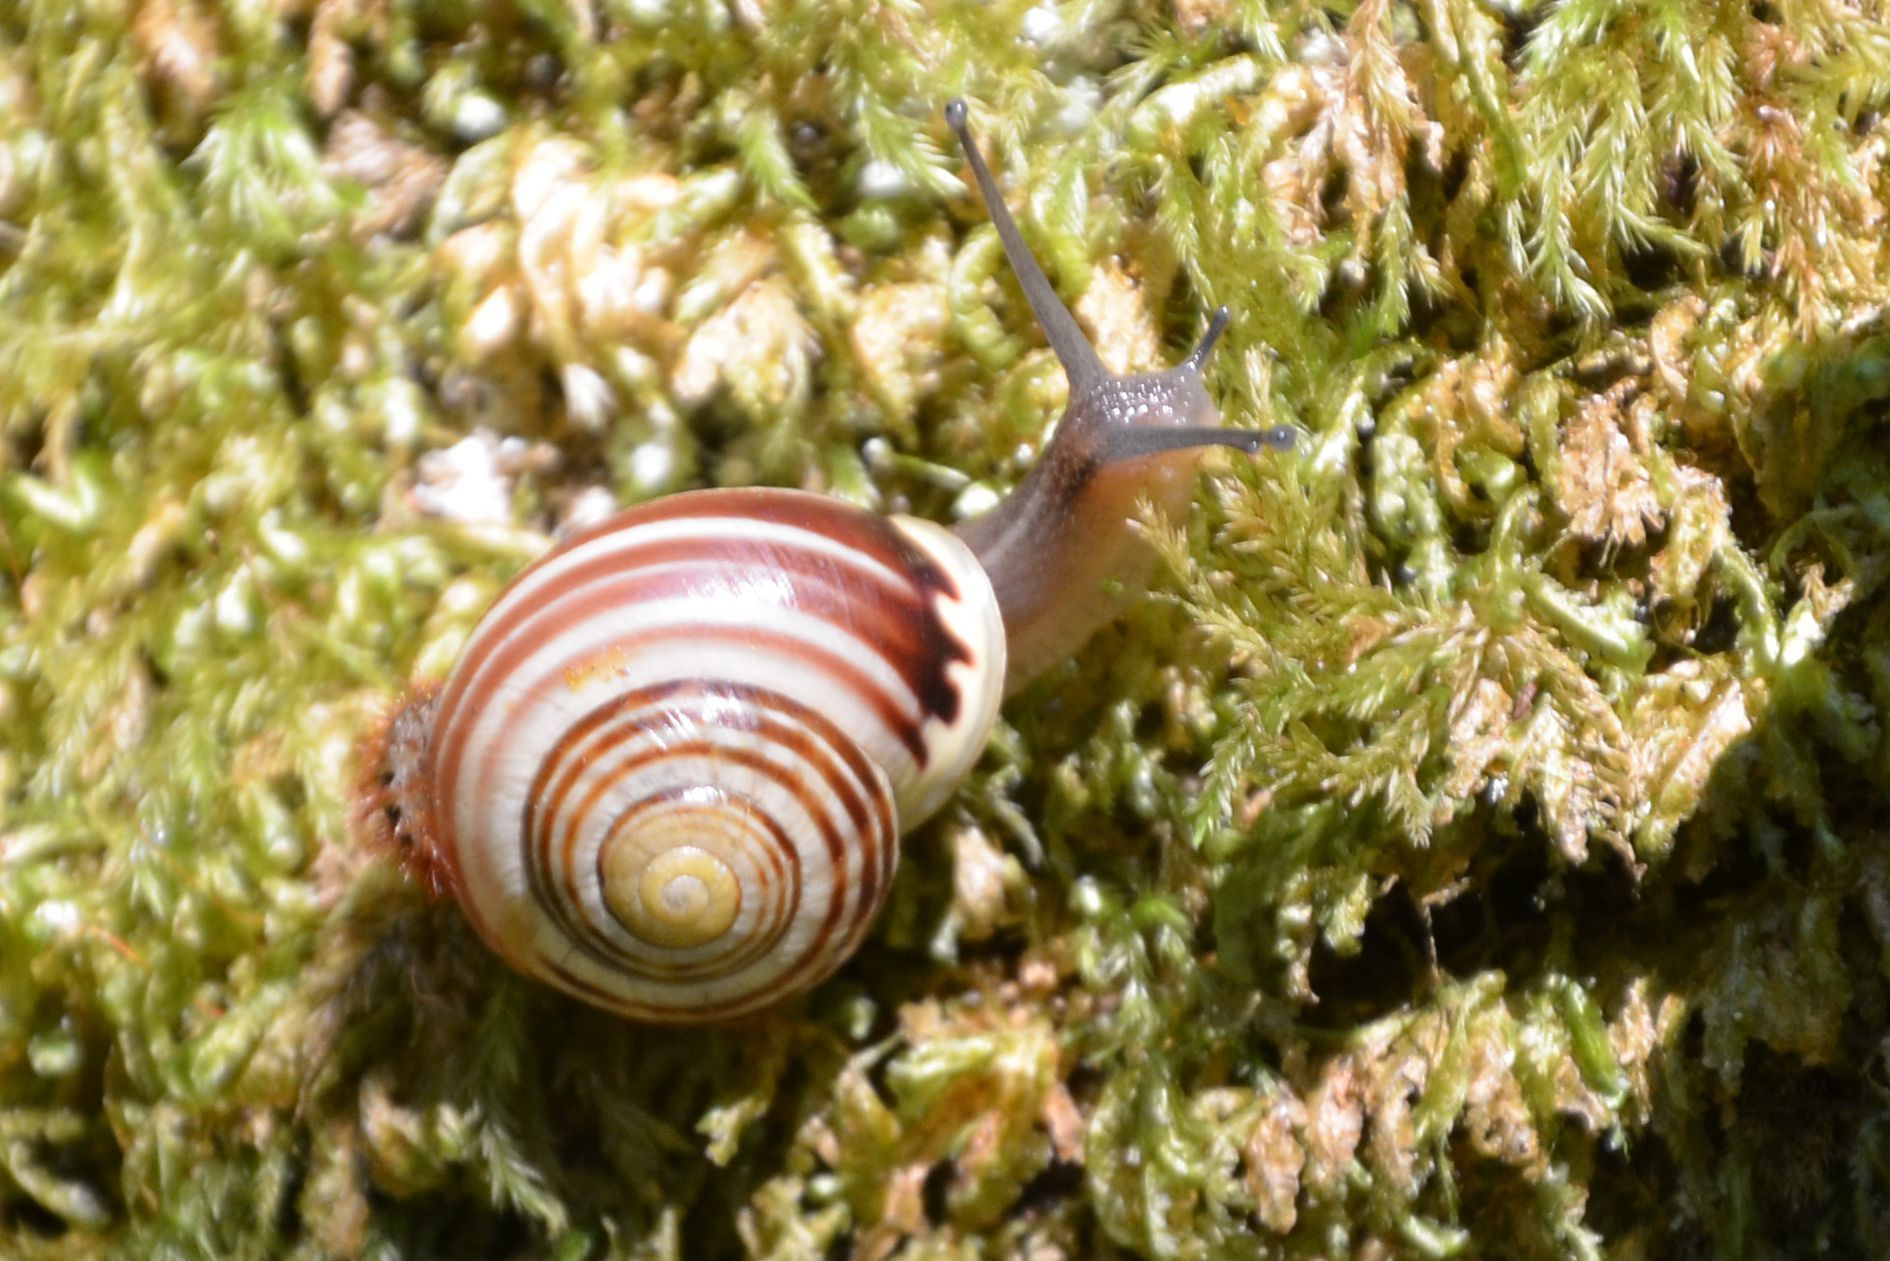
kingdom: Animalia
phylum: Mollusca
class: Gastropoda
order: Stylommatophora
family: Helicidae
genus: Cepaea
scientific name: Cepaea hortensis
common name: White-lip gardensnail
